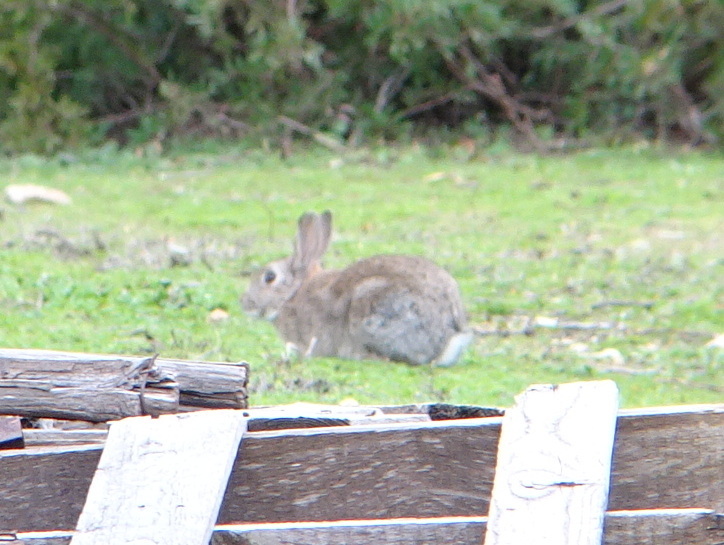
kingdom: Animalia
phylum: Chordata
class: Mammalia
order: Lagomorpha
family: Leporidae
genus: Oryctolagus
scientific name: Oryctolagus cuniculus
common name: European rabbit
